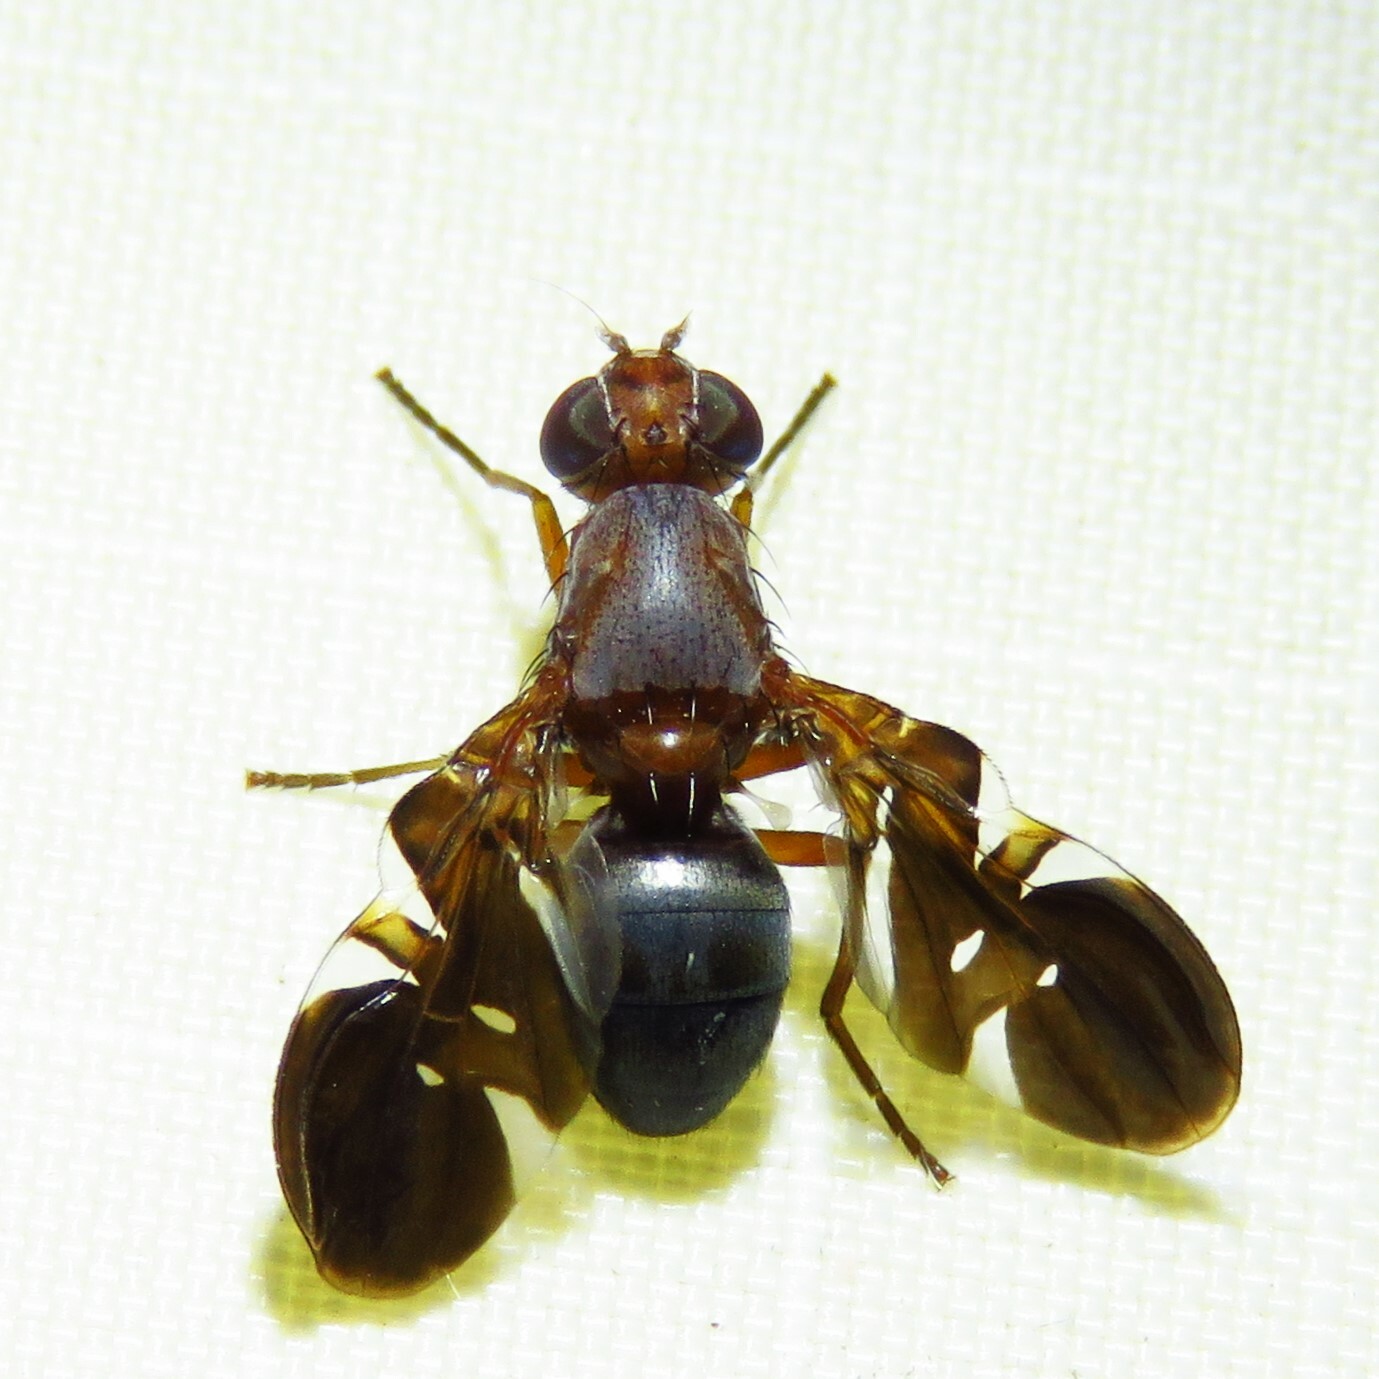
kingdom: Animalia
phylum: Arthropoda
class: Insecta
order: Diptera
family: Ulidiidae
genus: Delphinia
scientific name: Delphinia picta
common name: Common picture-winged fly
